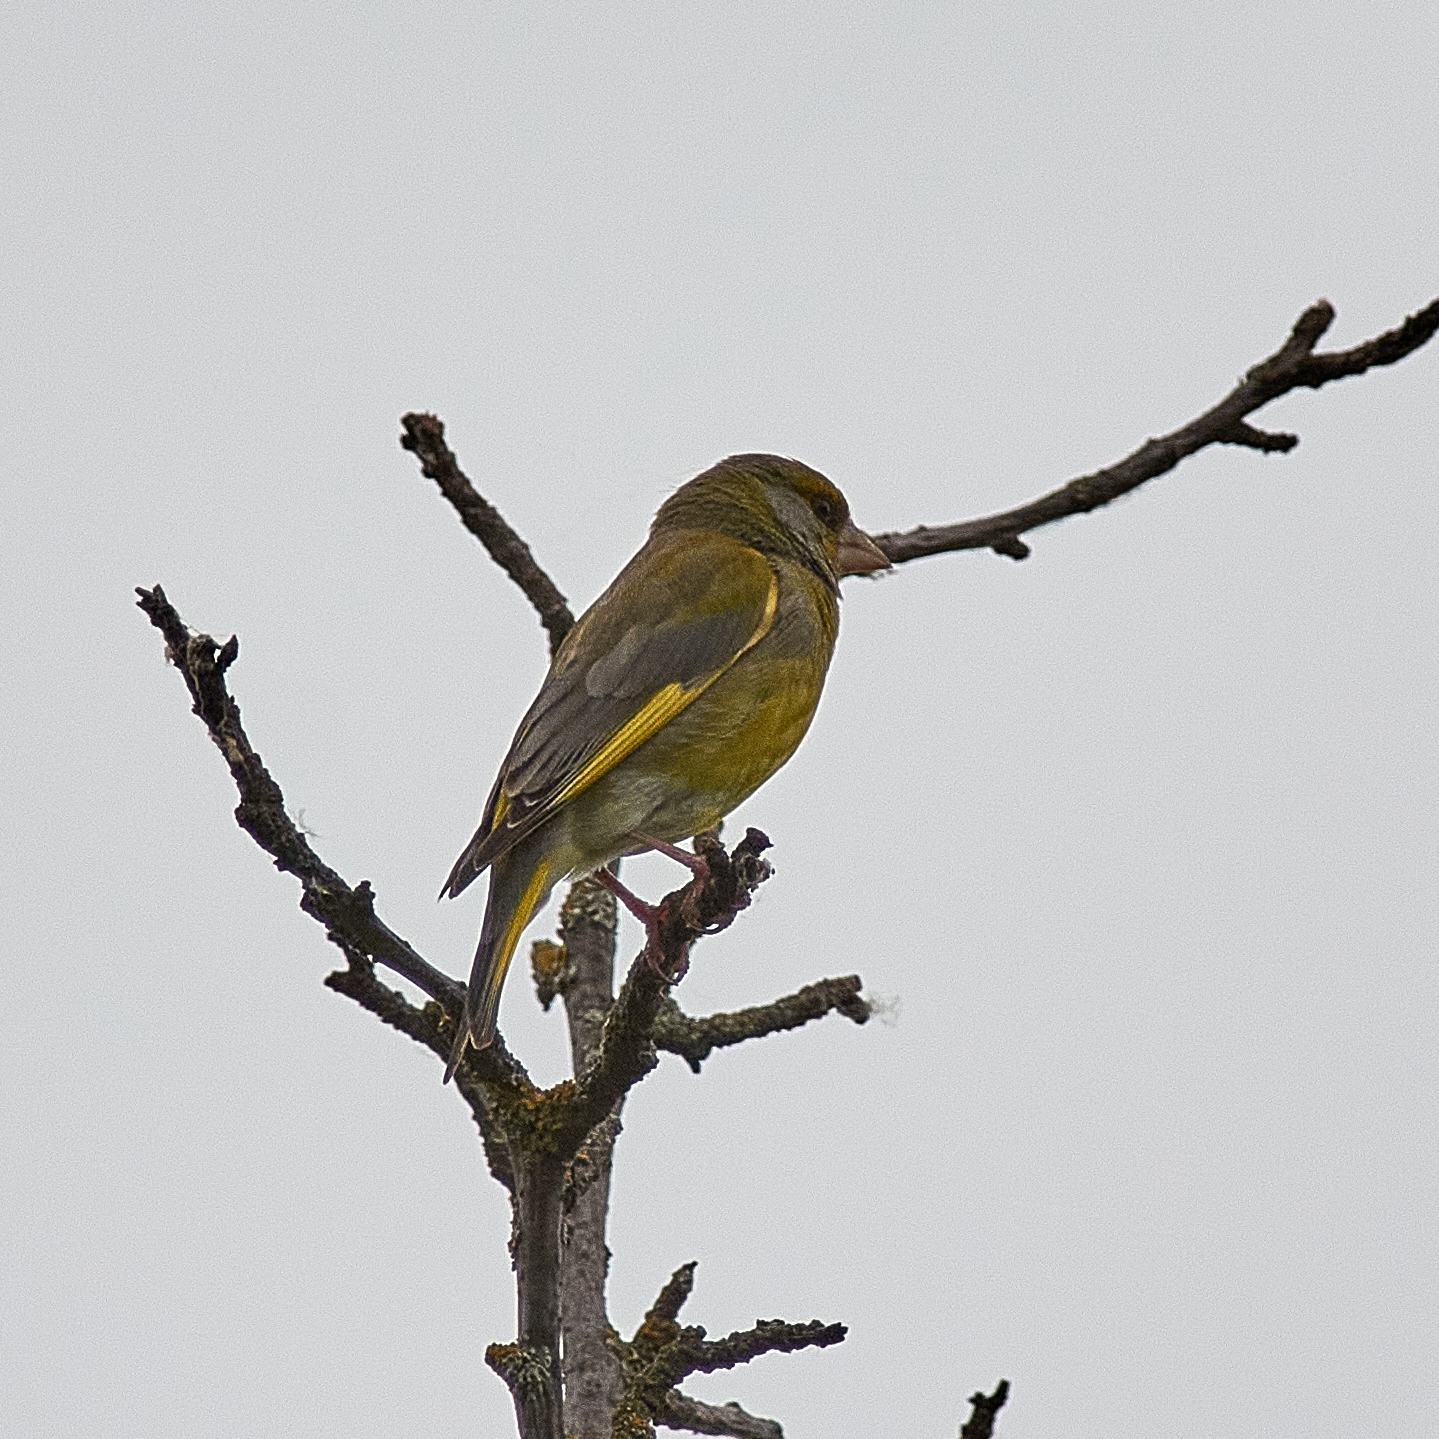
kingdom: Plantae
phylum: Tracheophyta
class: Liliopsida
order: Poales
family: Poaceae
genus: Chloris
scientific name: Chloris chloris
